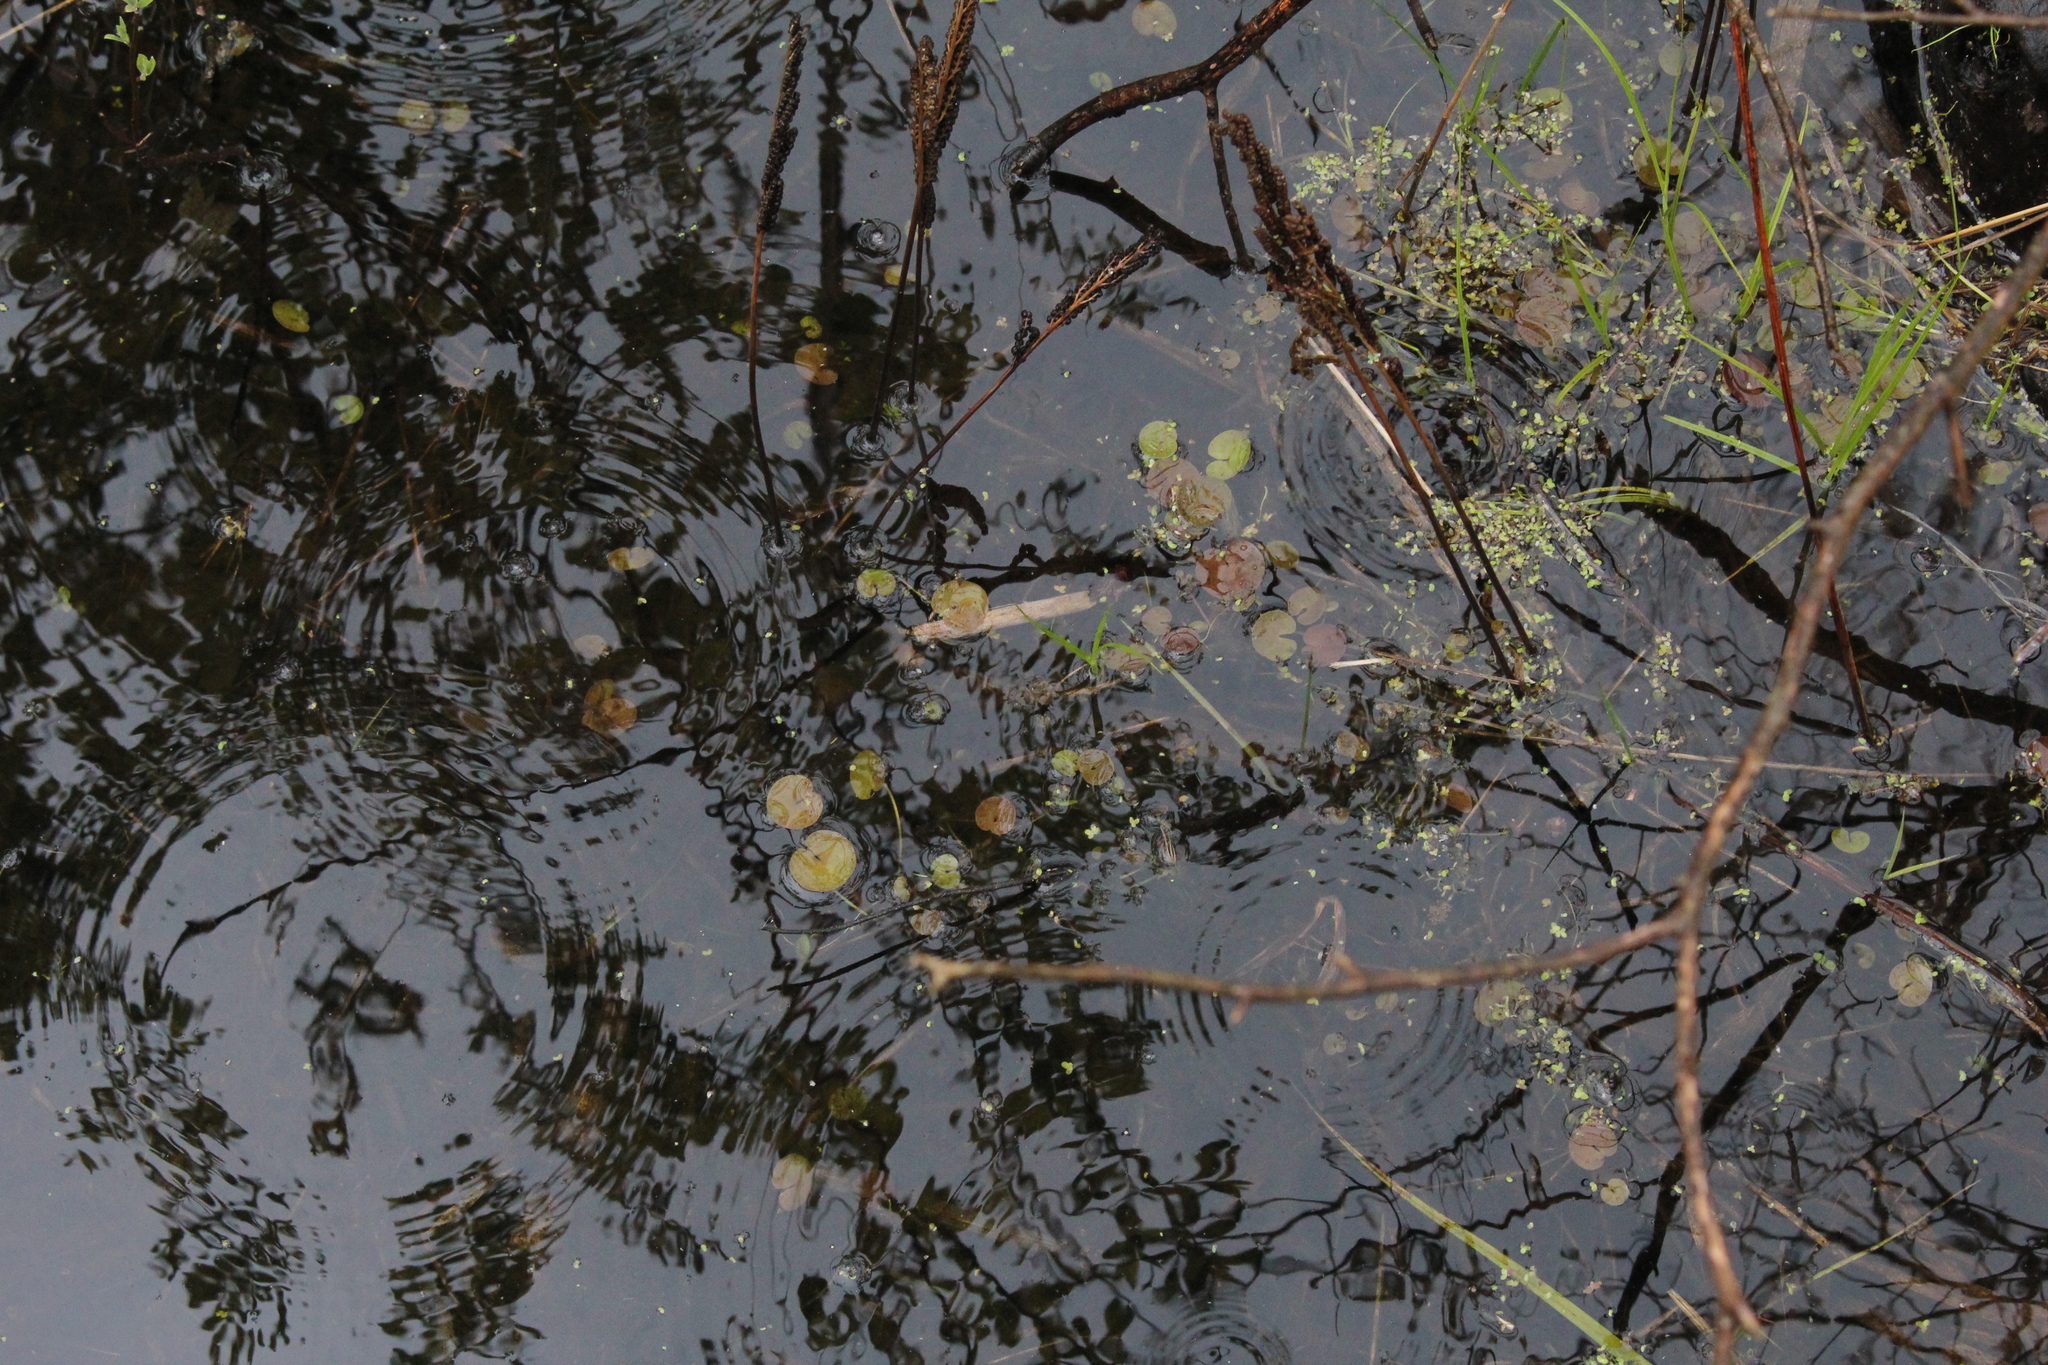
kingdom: Plantae
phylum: Tracheophyta
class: Liliopsida
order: Alismatales
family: Hydrocharitaceae
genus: Hydrocharis
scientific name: Hydrocharis morsus-ranae
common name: Frogbit
